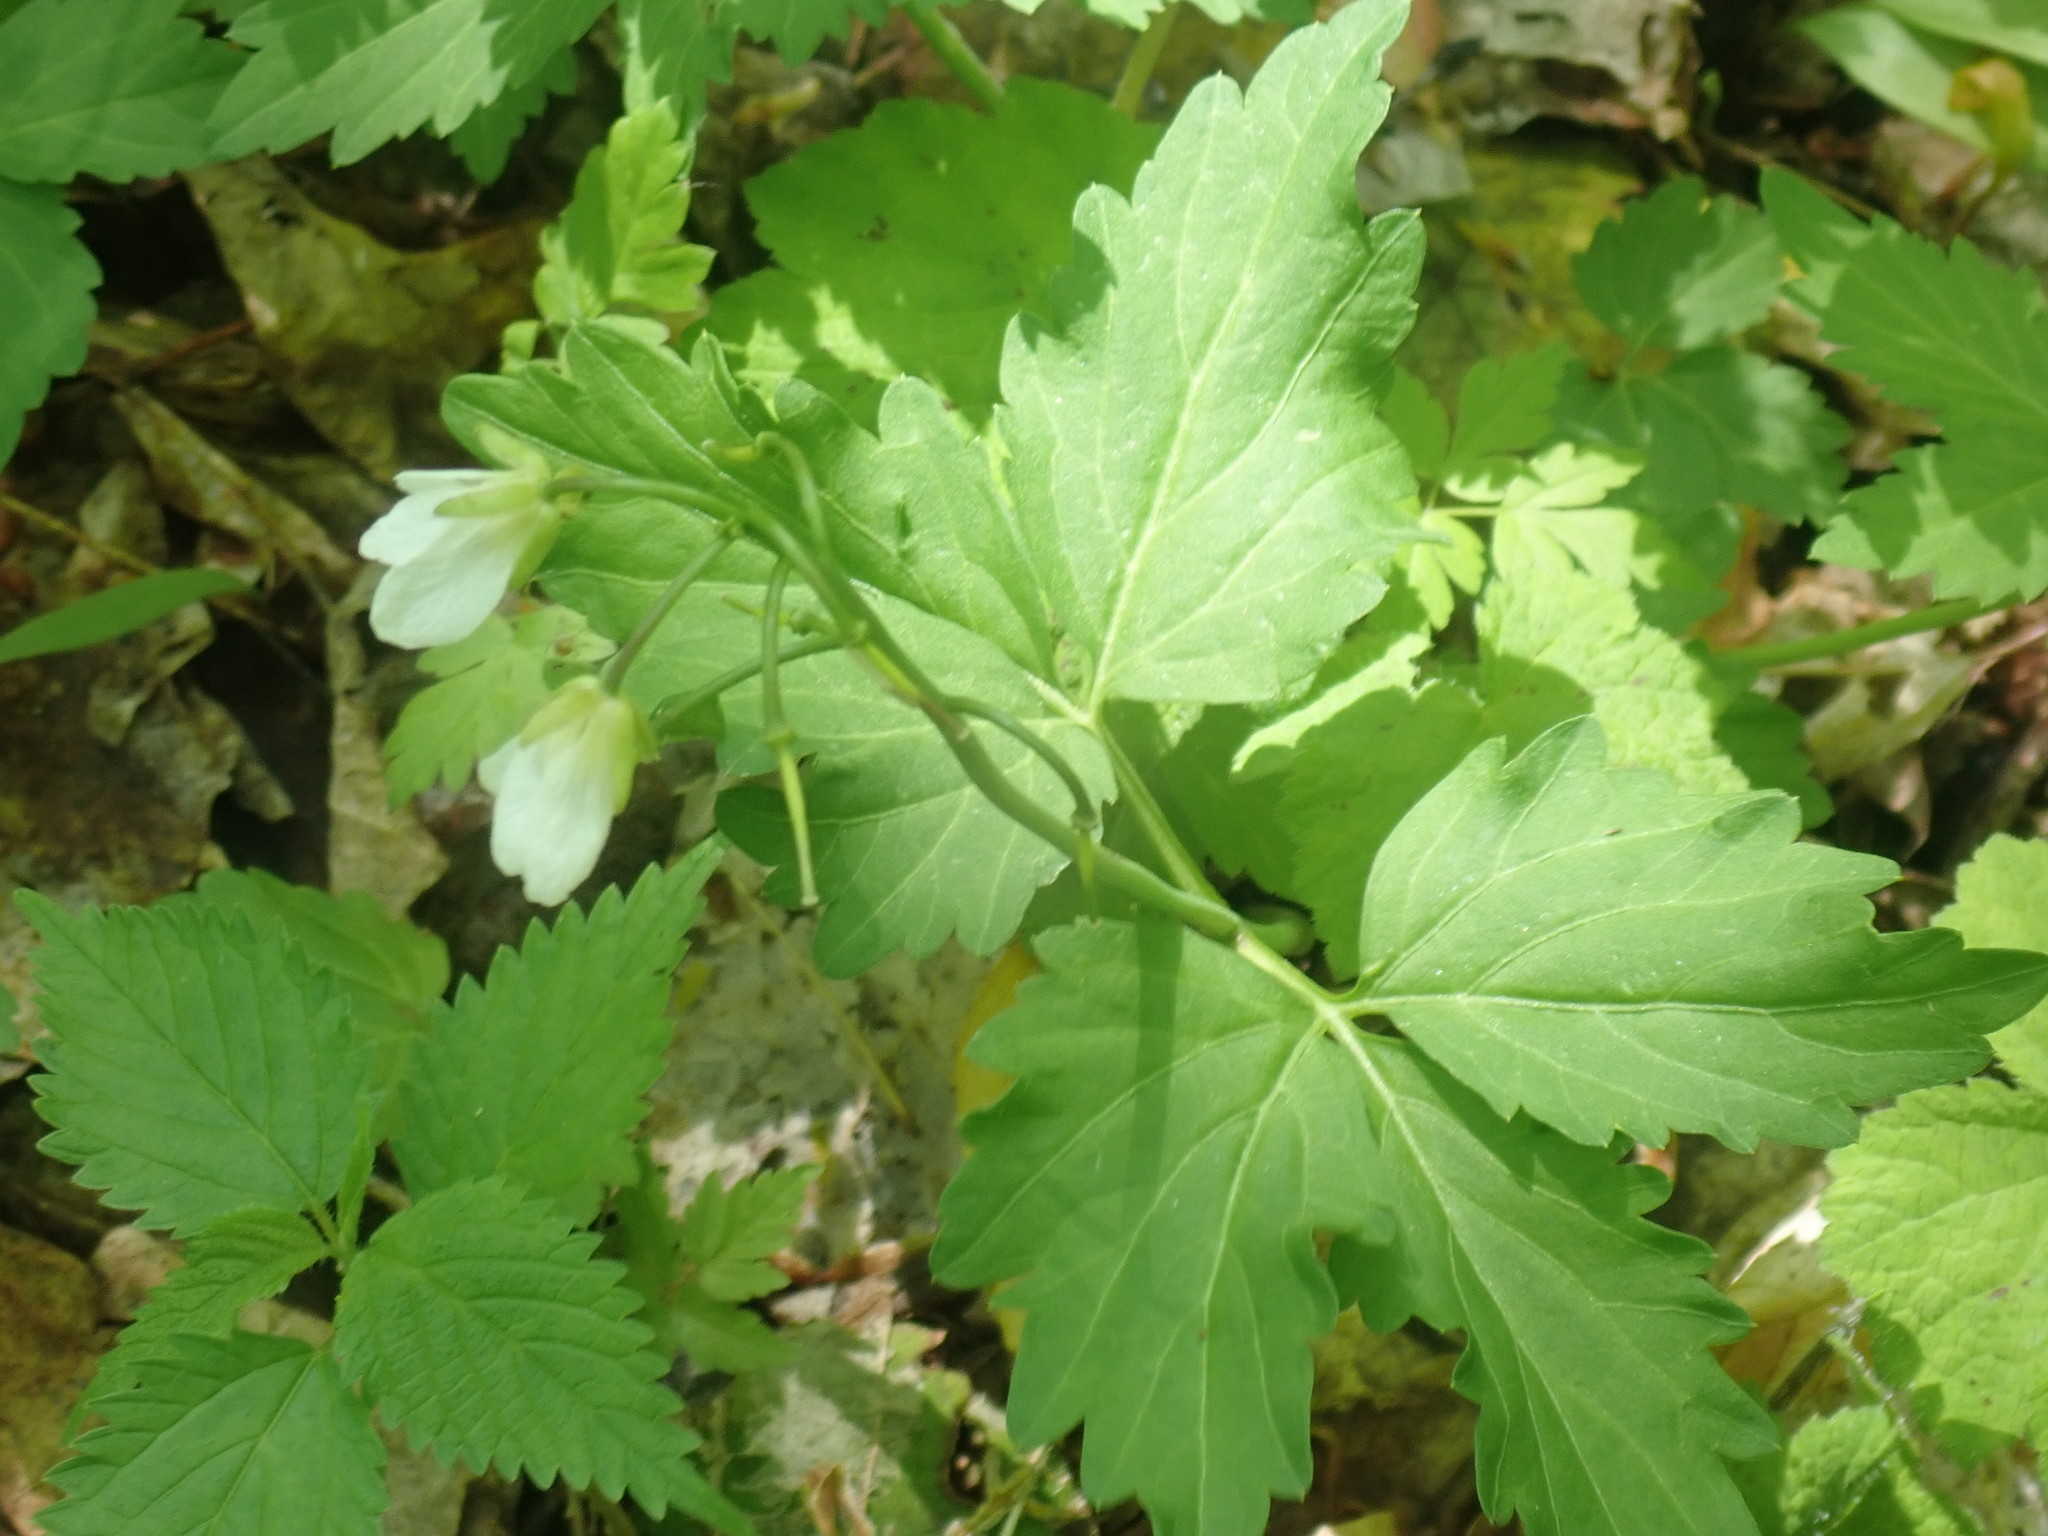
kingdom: Plantae
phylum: Tracheophyta
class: Magnoliopsida
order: Brassicales
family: Brassicaceae
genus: Cardamine
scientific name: Cardamine diphylla
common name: Broad-leaved toothwort
